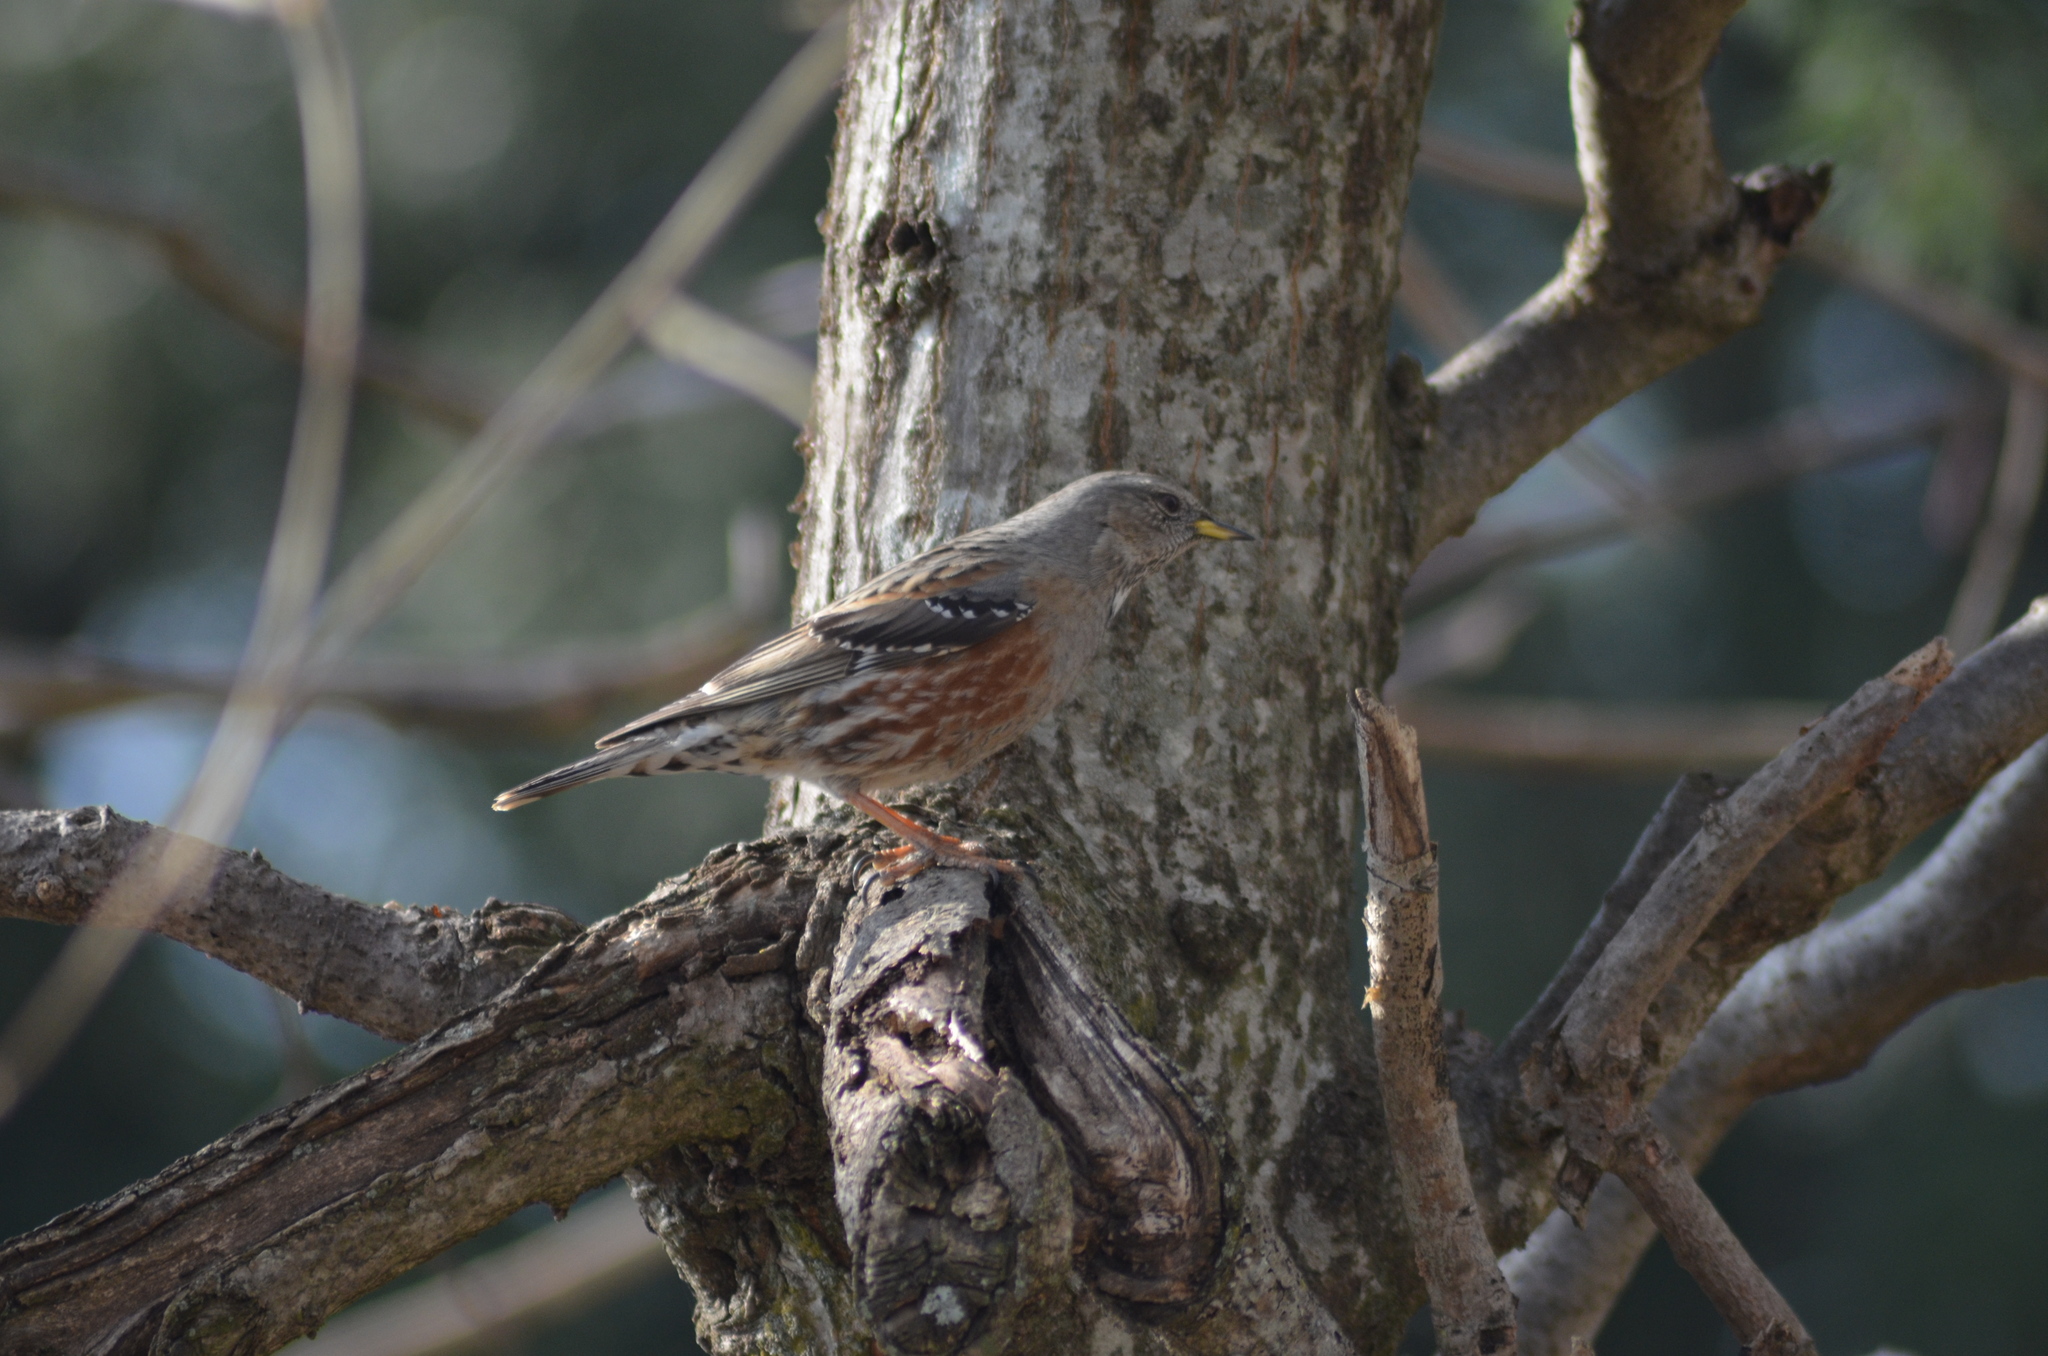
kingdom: Animalia
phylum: Chordata
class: Aves
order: Passeriformes
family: Prunellidae
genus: Prunella
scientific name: Prunella collaris
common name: Alpine accentor
